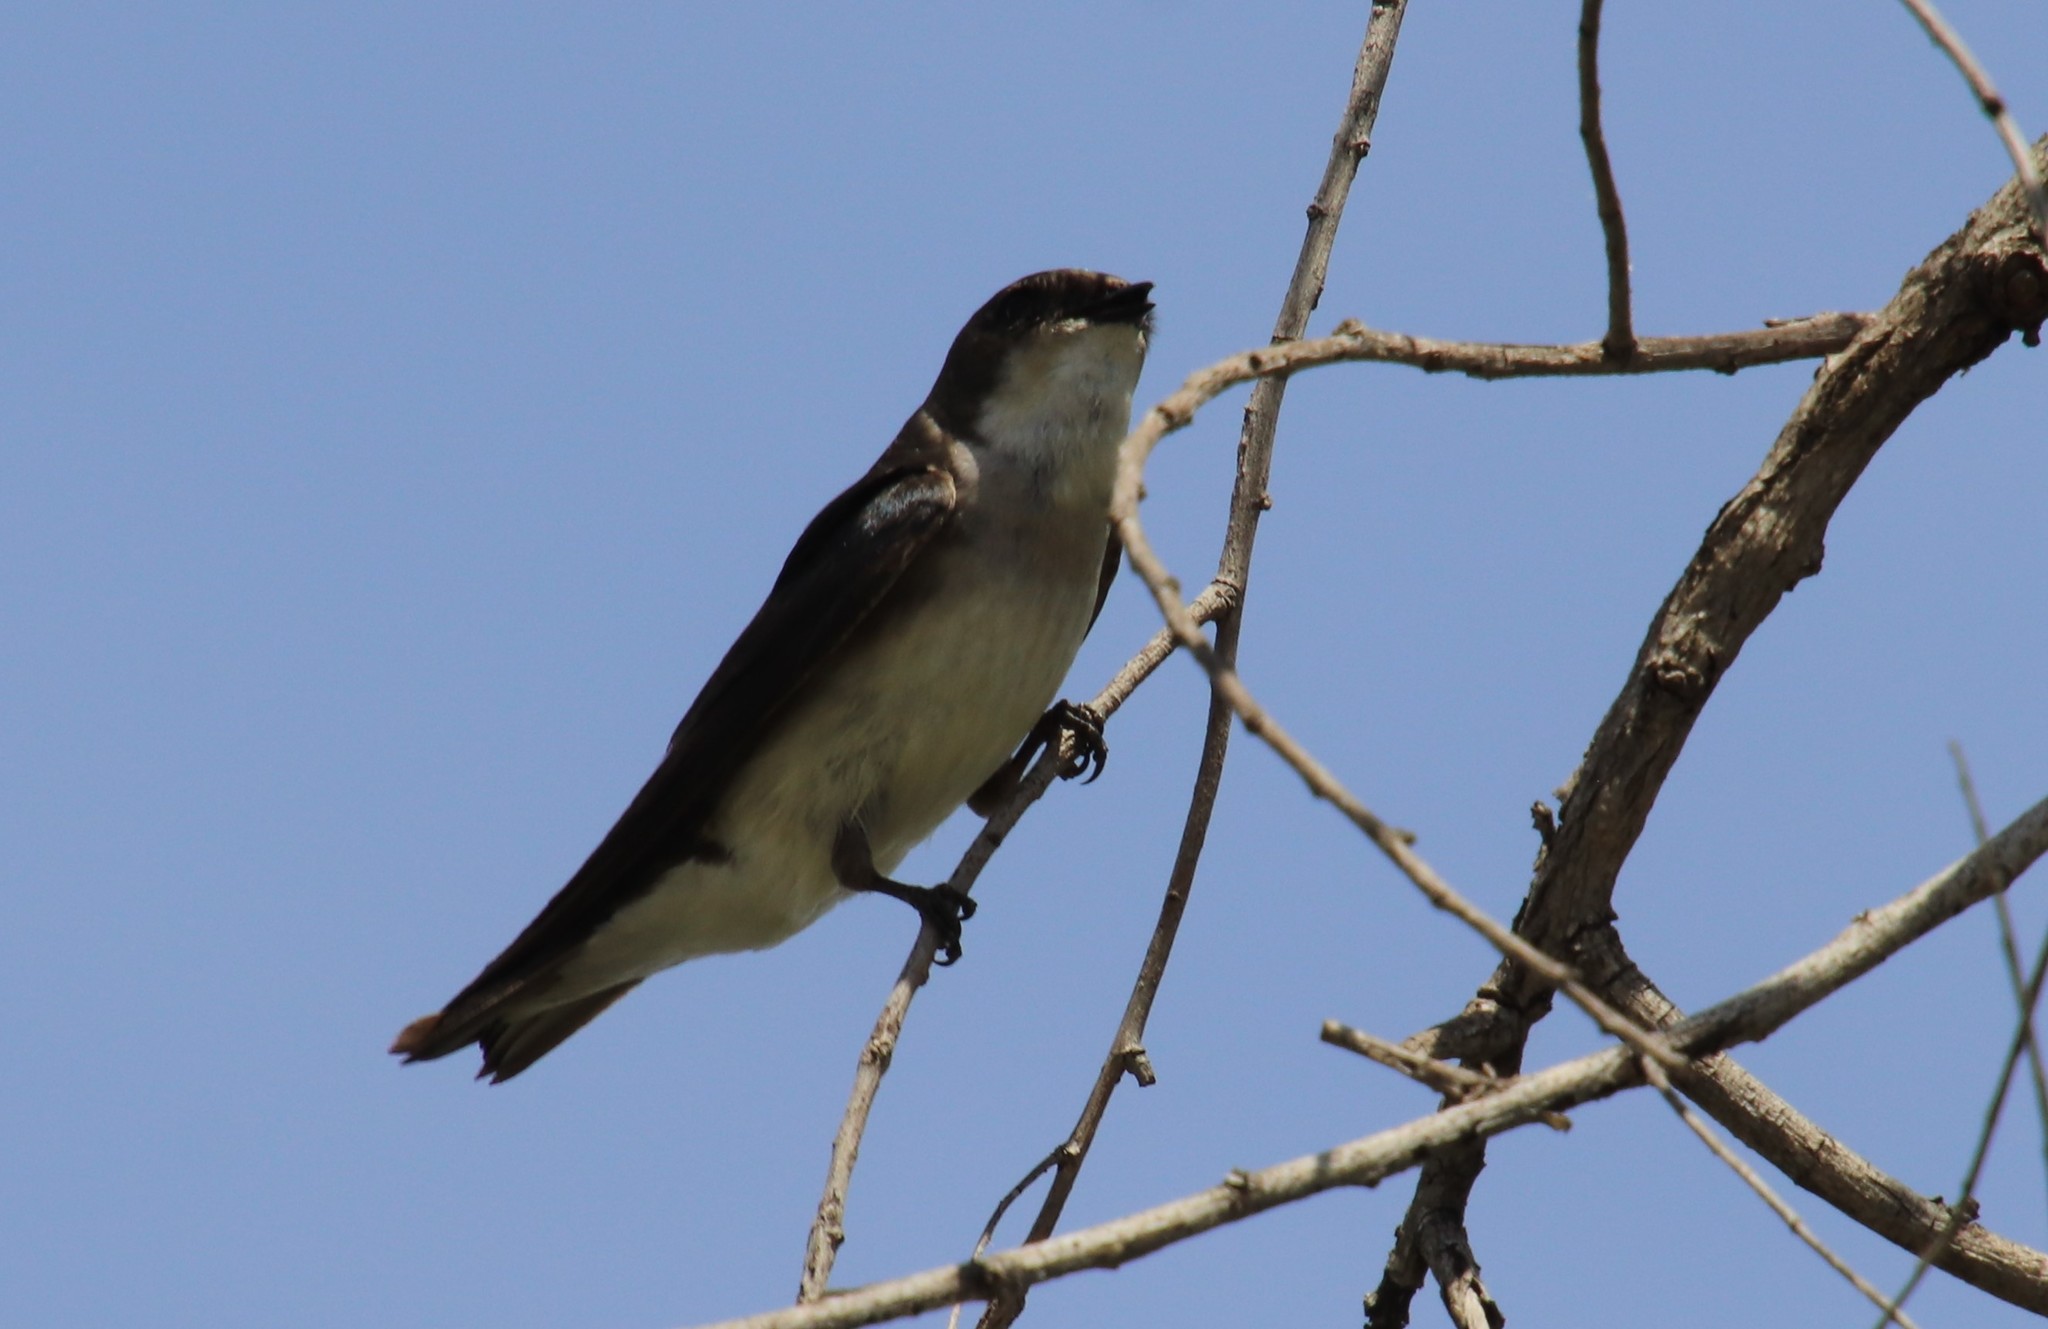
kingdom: Animalia
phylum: Chordata
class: Aves
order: Passeriformes
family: Hirundinidae
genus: Tachycineta
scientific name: Tachycineta bicolor
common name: Tree swallow
